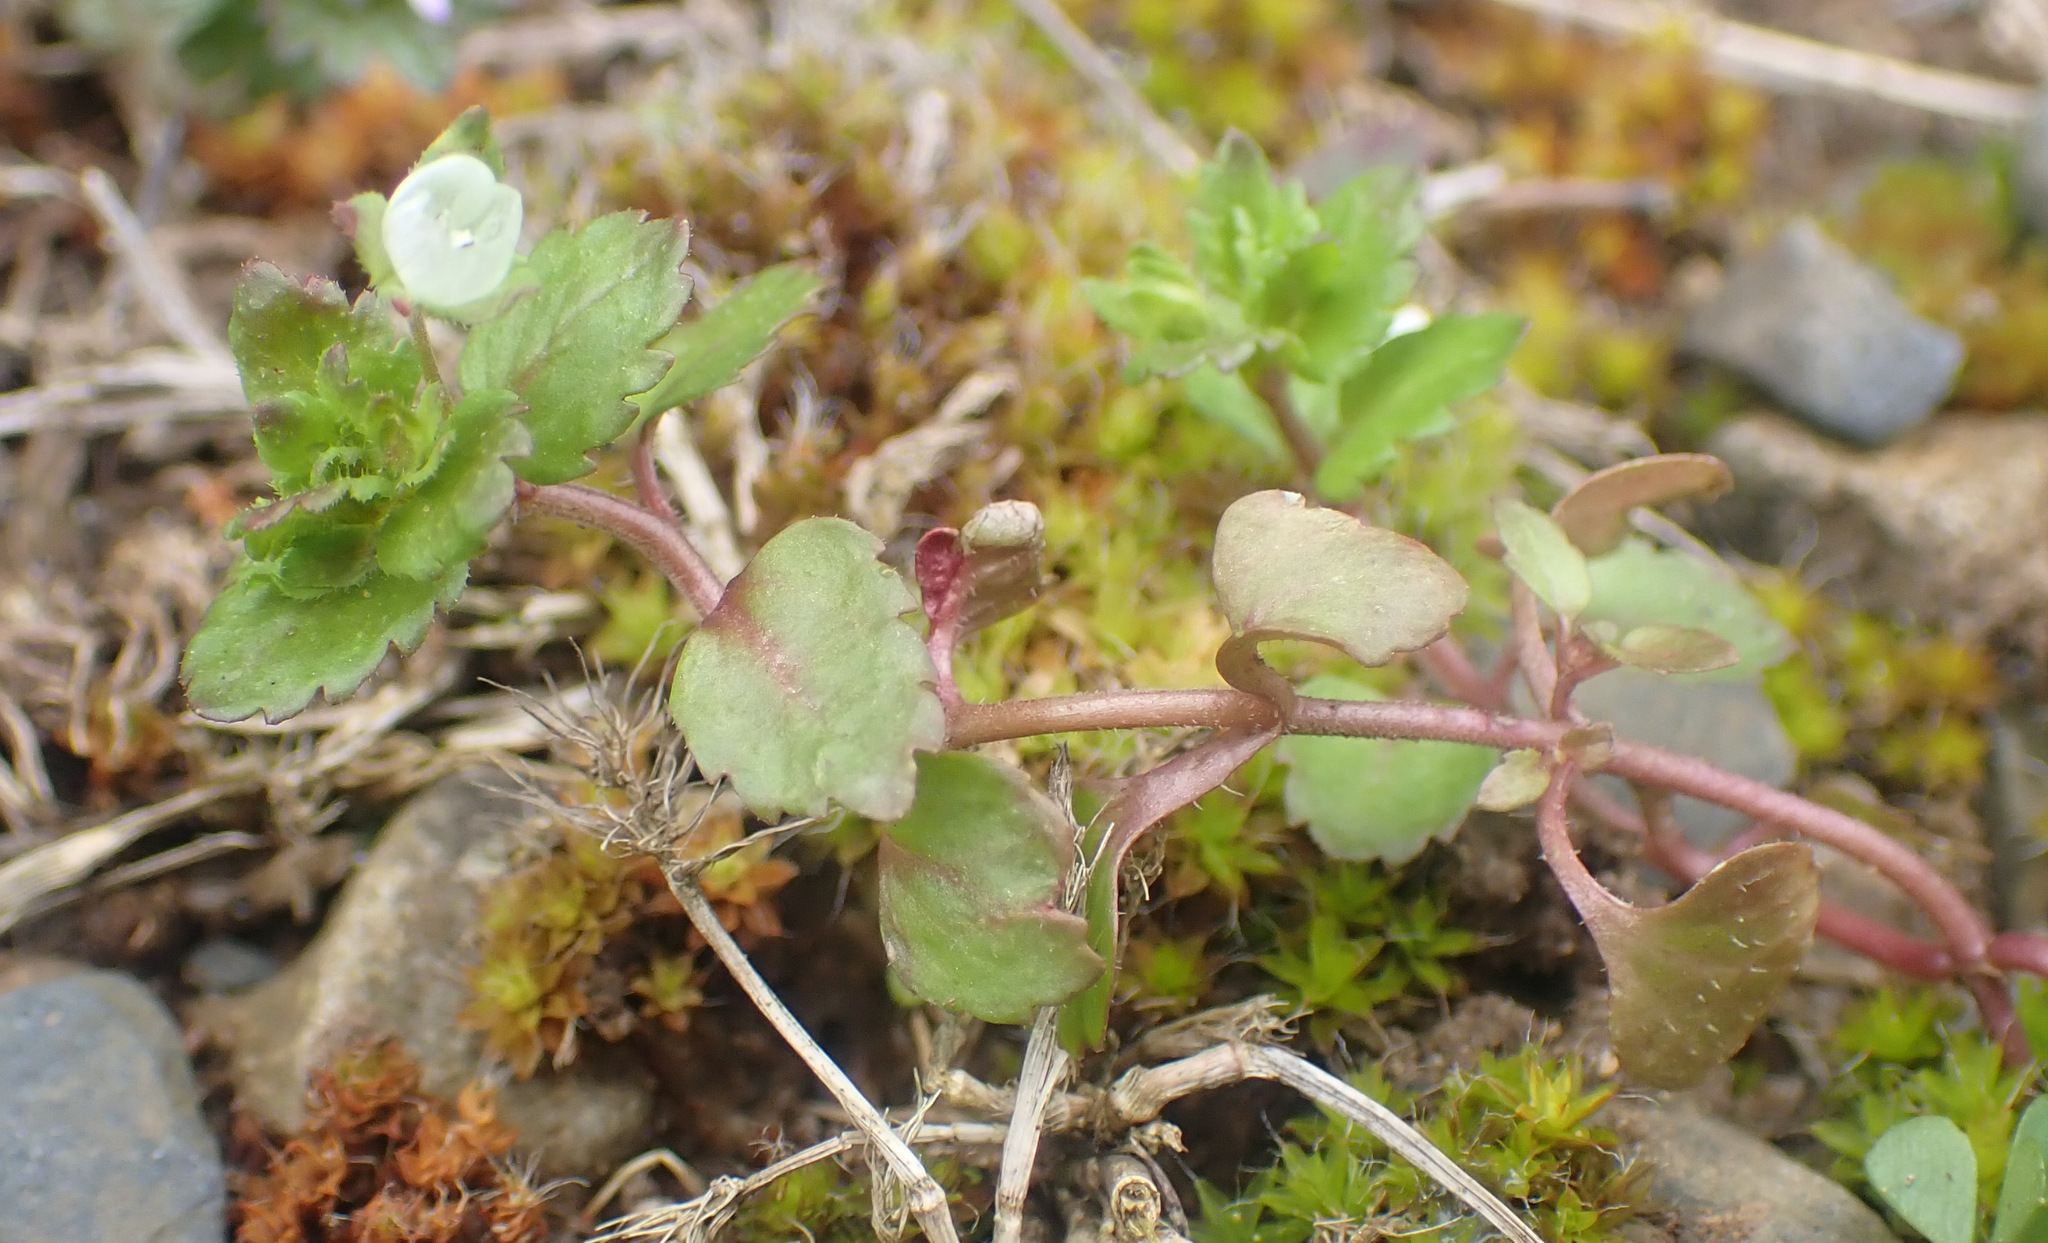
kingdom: Plantae
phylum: Tracheophyta
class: Magnoliopsida
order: Lamiales
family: Plantaginaceae
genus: Veronica
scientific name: Veronica agrestis
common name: Green field-speedwell
